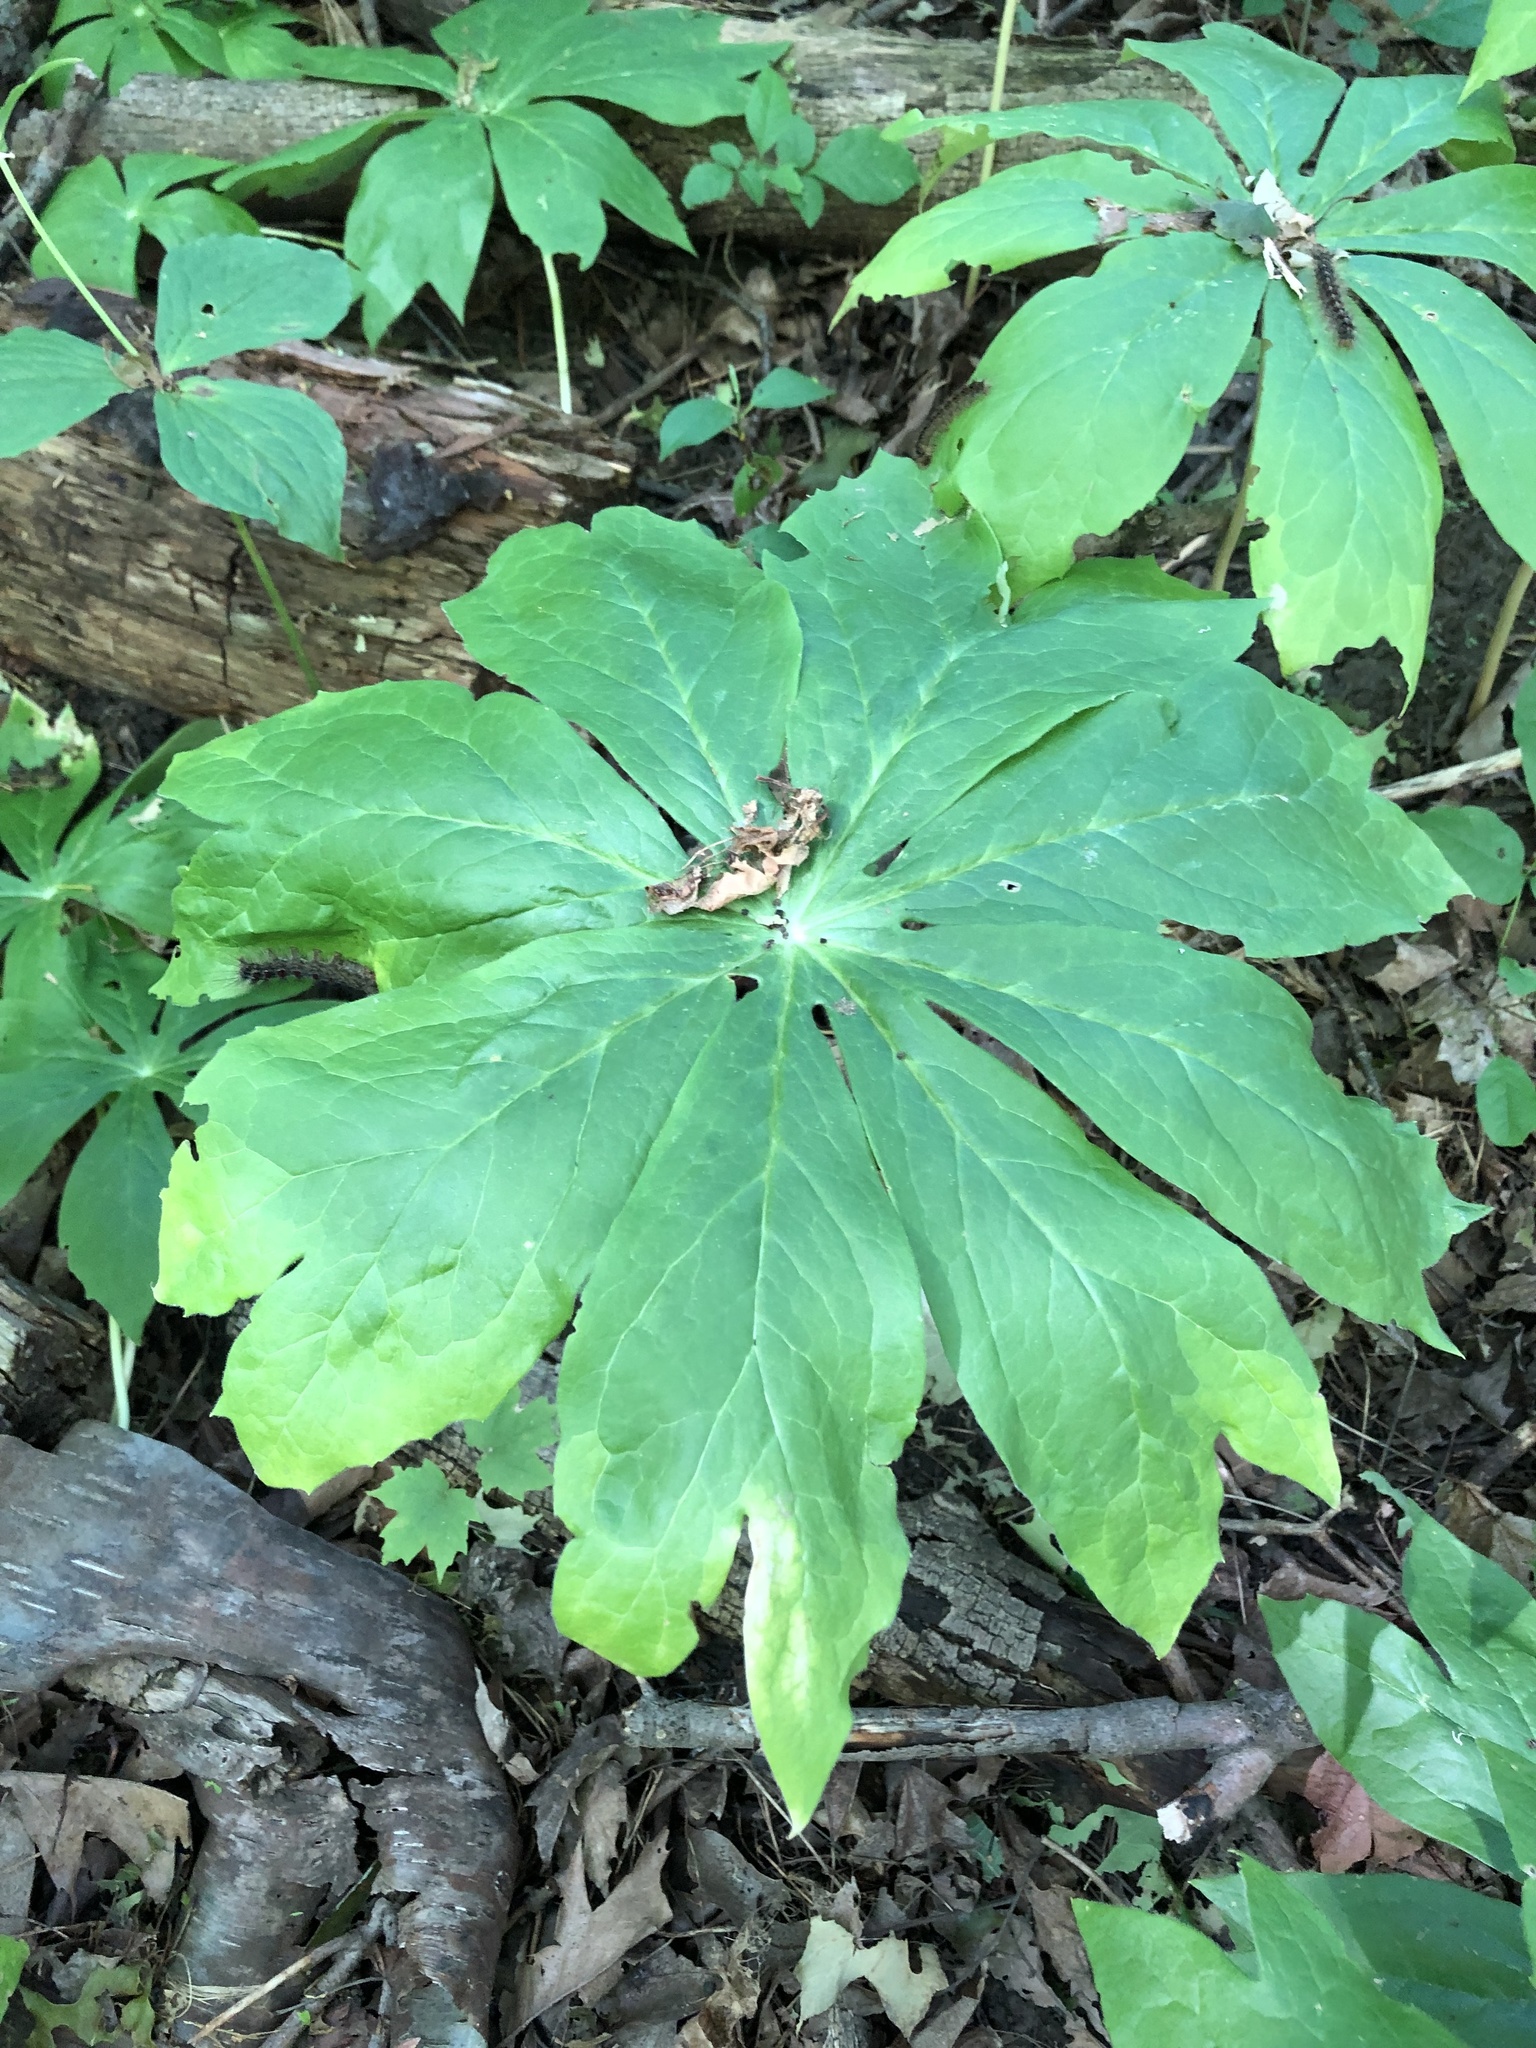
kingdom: Plantae
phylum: Tracheophyta
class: Magnoliopsida
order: Ranunculales
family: Berberidaceae
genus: Podophyllum
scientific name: Podophyllum peltatum
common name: Wild mandrake
